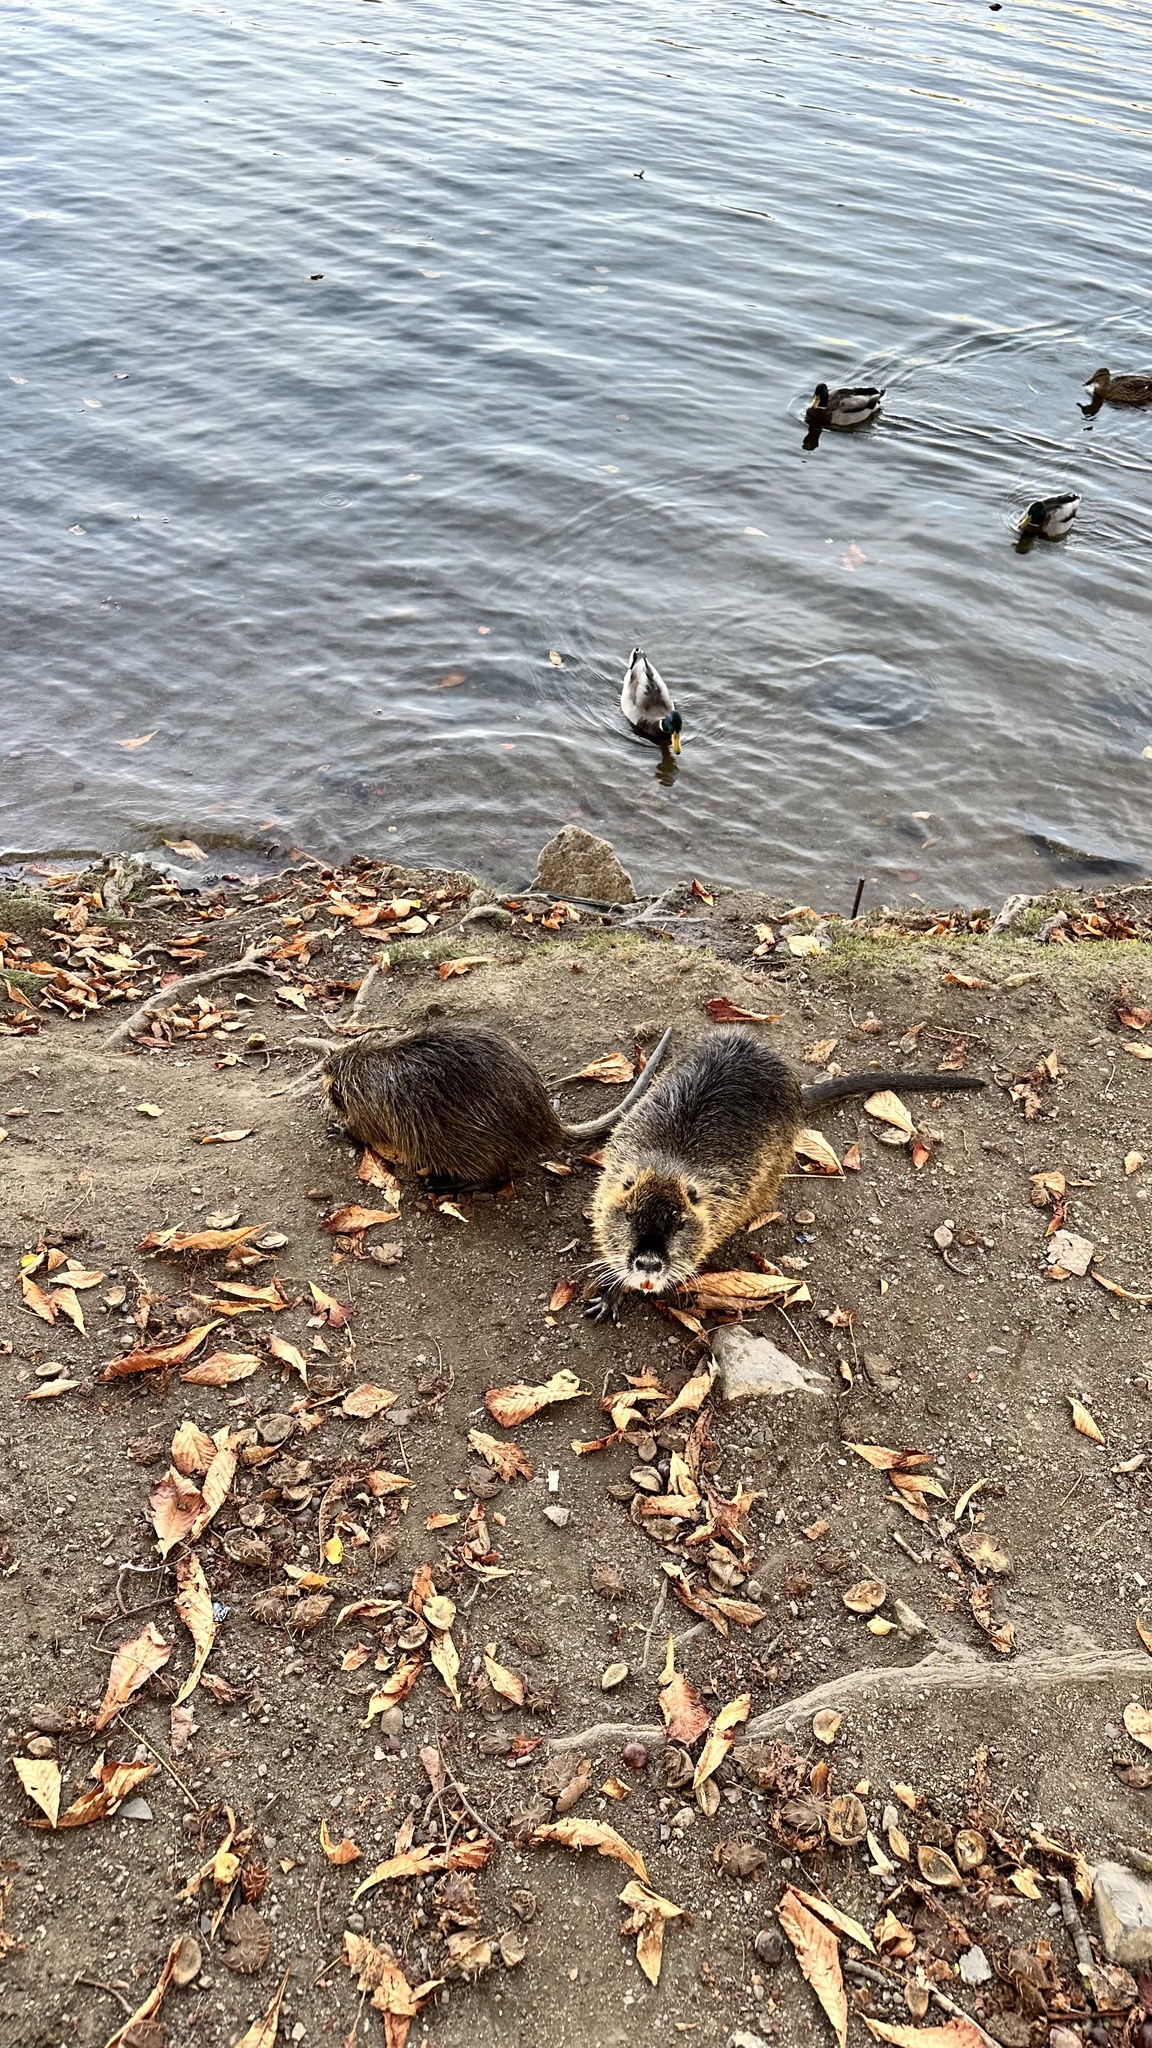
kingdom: Animalia
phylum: Chordata
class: Mammalia
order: Rodentia
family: Myocastoridae
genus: Myocastor
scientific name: Myocastor coypus
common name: Coypu
